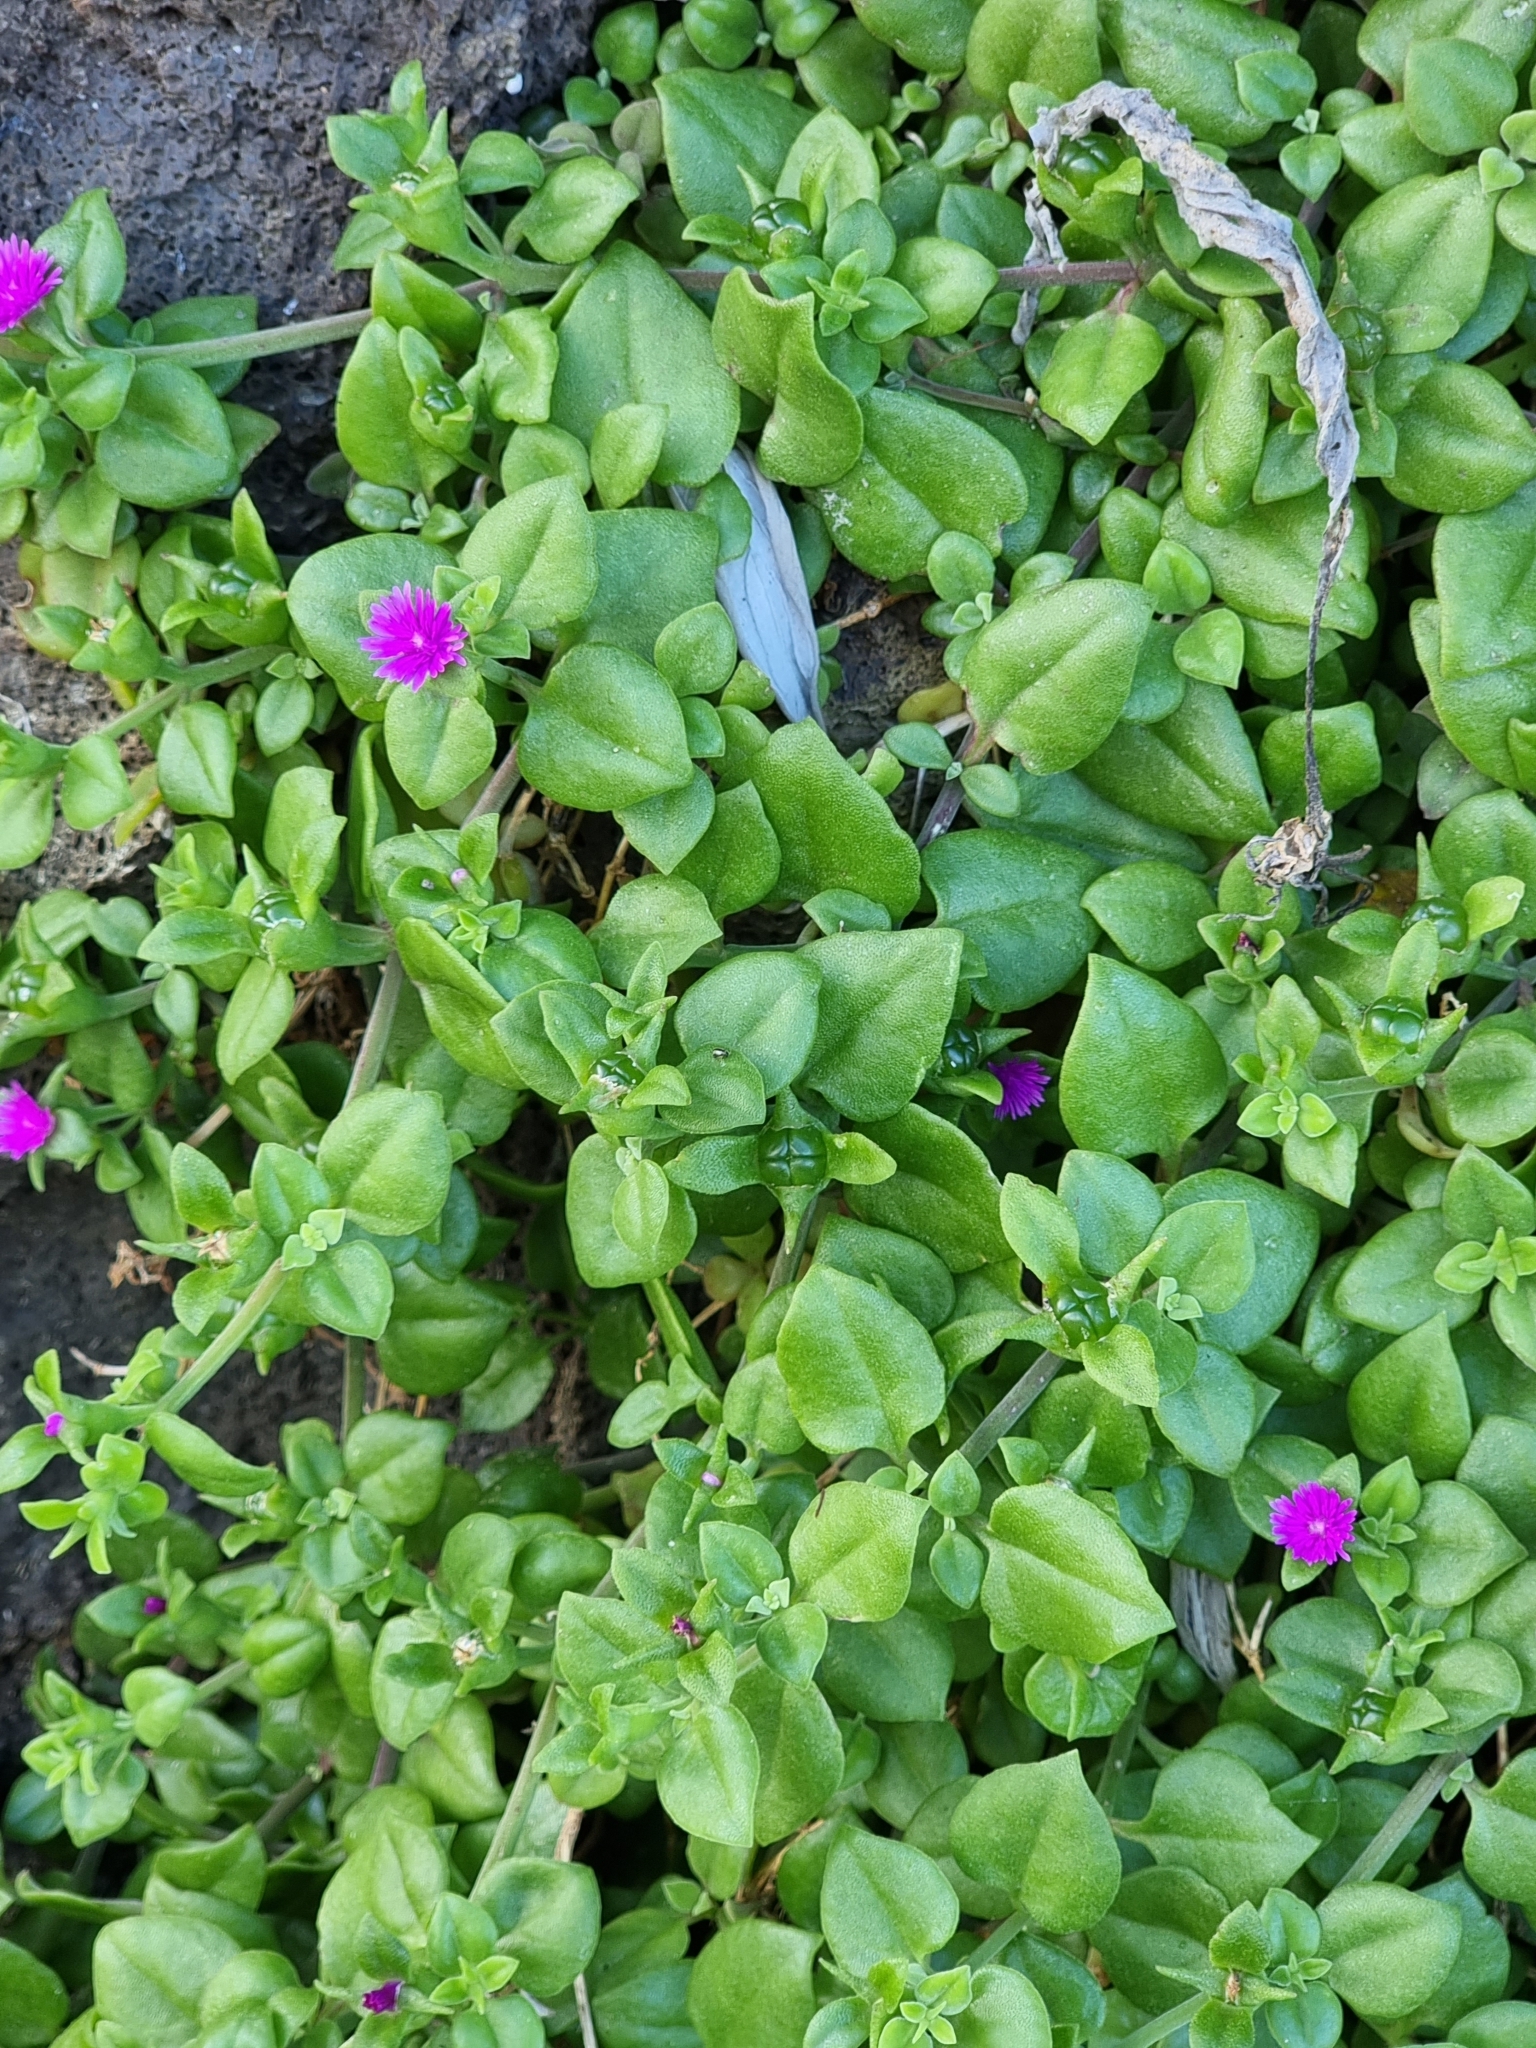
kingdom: Plantae
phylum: Tracheophyta
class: Magnoliopsida
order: Caryophyllales
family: Aizoaceae
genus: Mesembryanthemum
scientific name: Mesembryanthemum cordifolium
